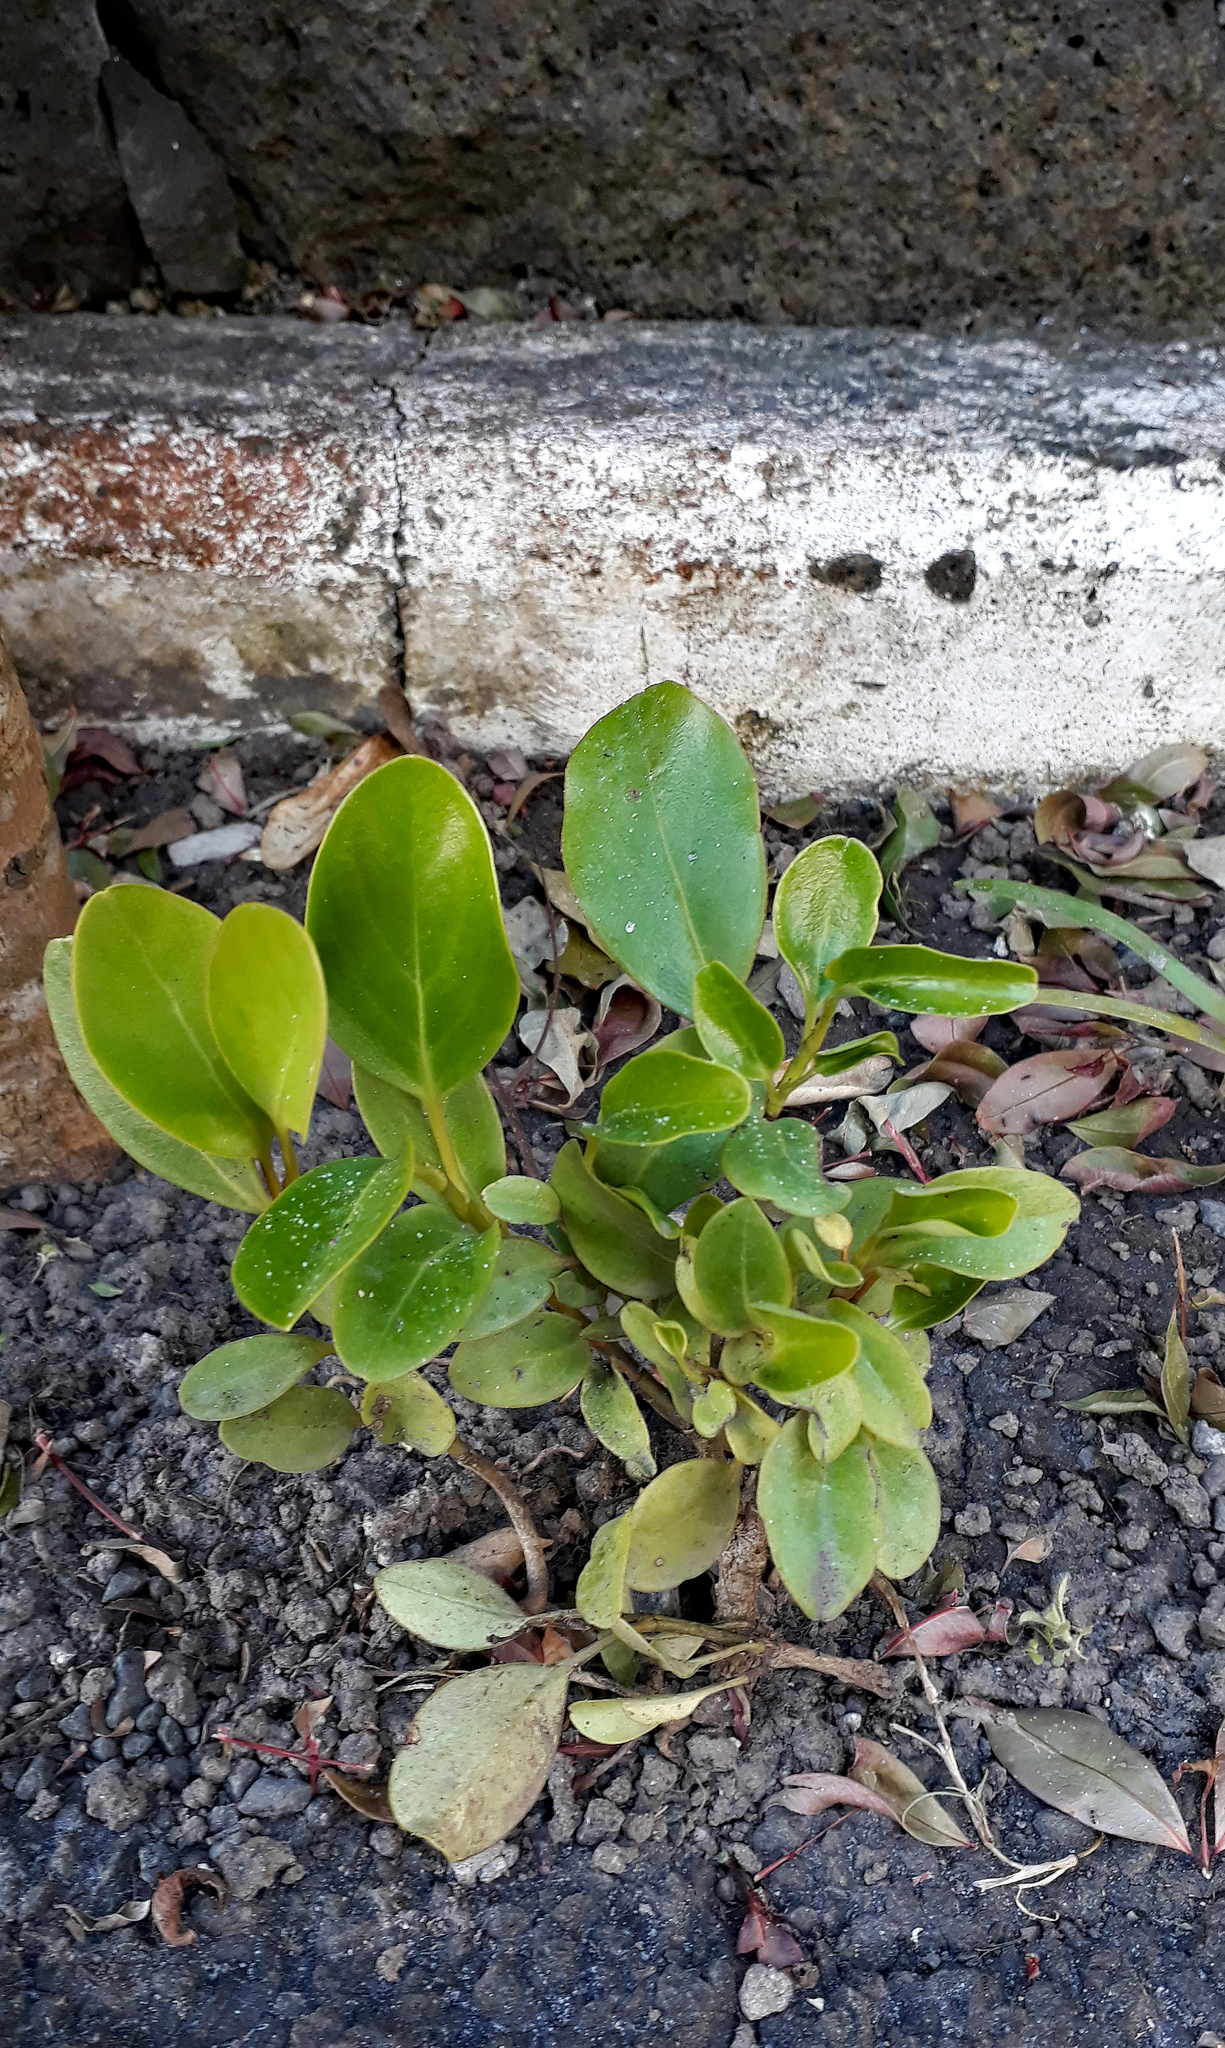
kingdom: Plantae
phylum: Tracheophyta
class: Magnoliopsida
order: Apiales
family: Griseliniaceae
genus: Griselinia
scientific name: Griselinia littoralis
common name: New zealand broadleaf
